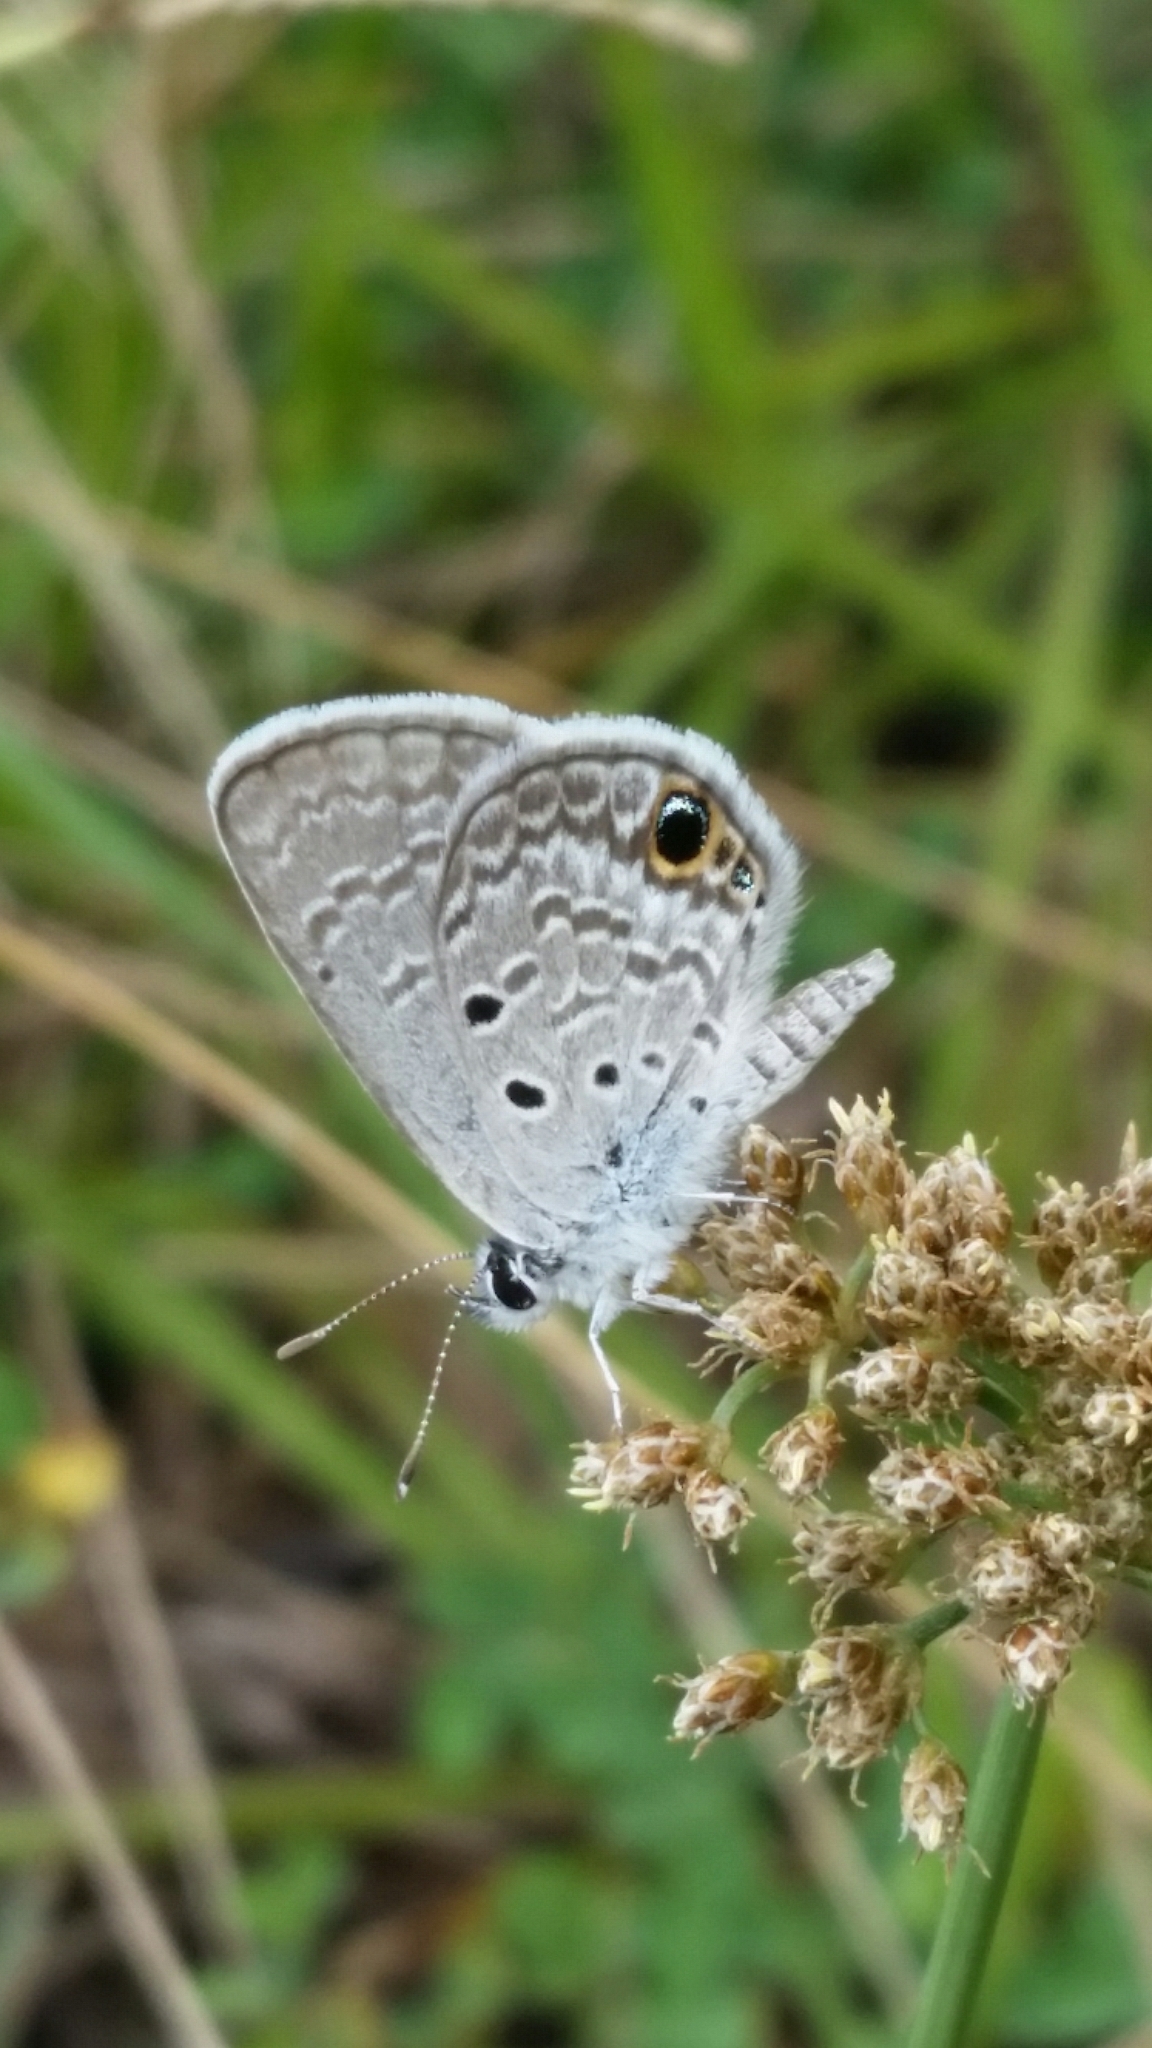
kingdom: Animalia
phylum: Arthropoda
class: Insecta
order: Lepidoptera
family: Lycaenidae
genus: Hemiargus
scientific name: Hemiargus ceraunus
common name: Ceraunus blue
